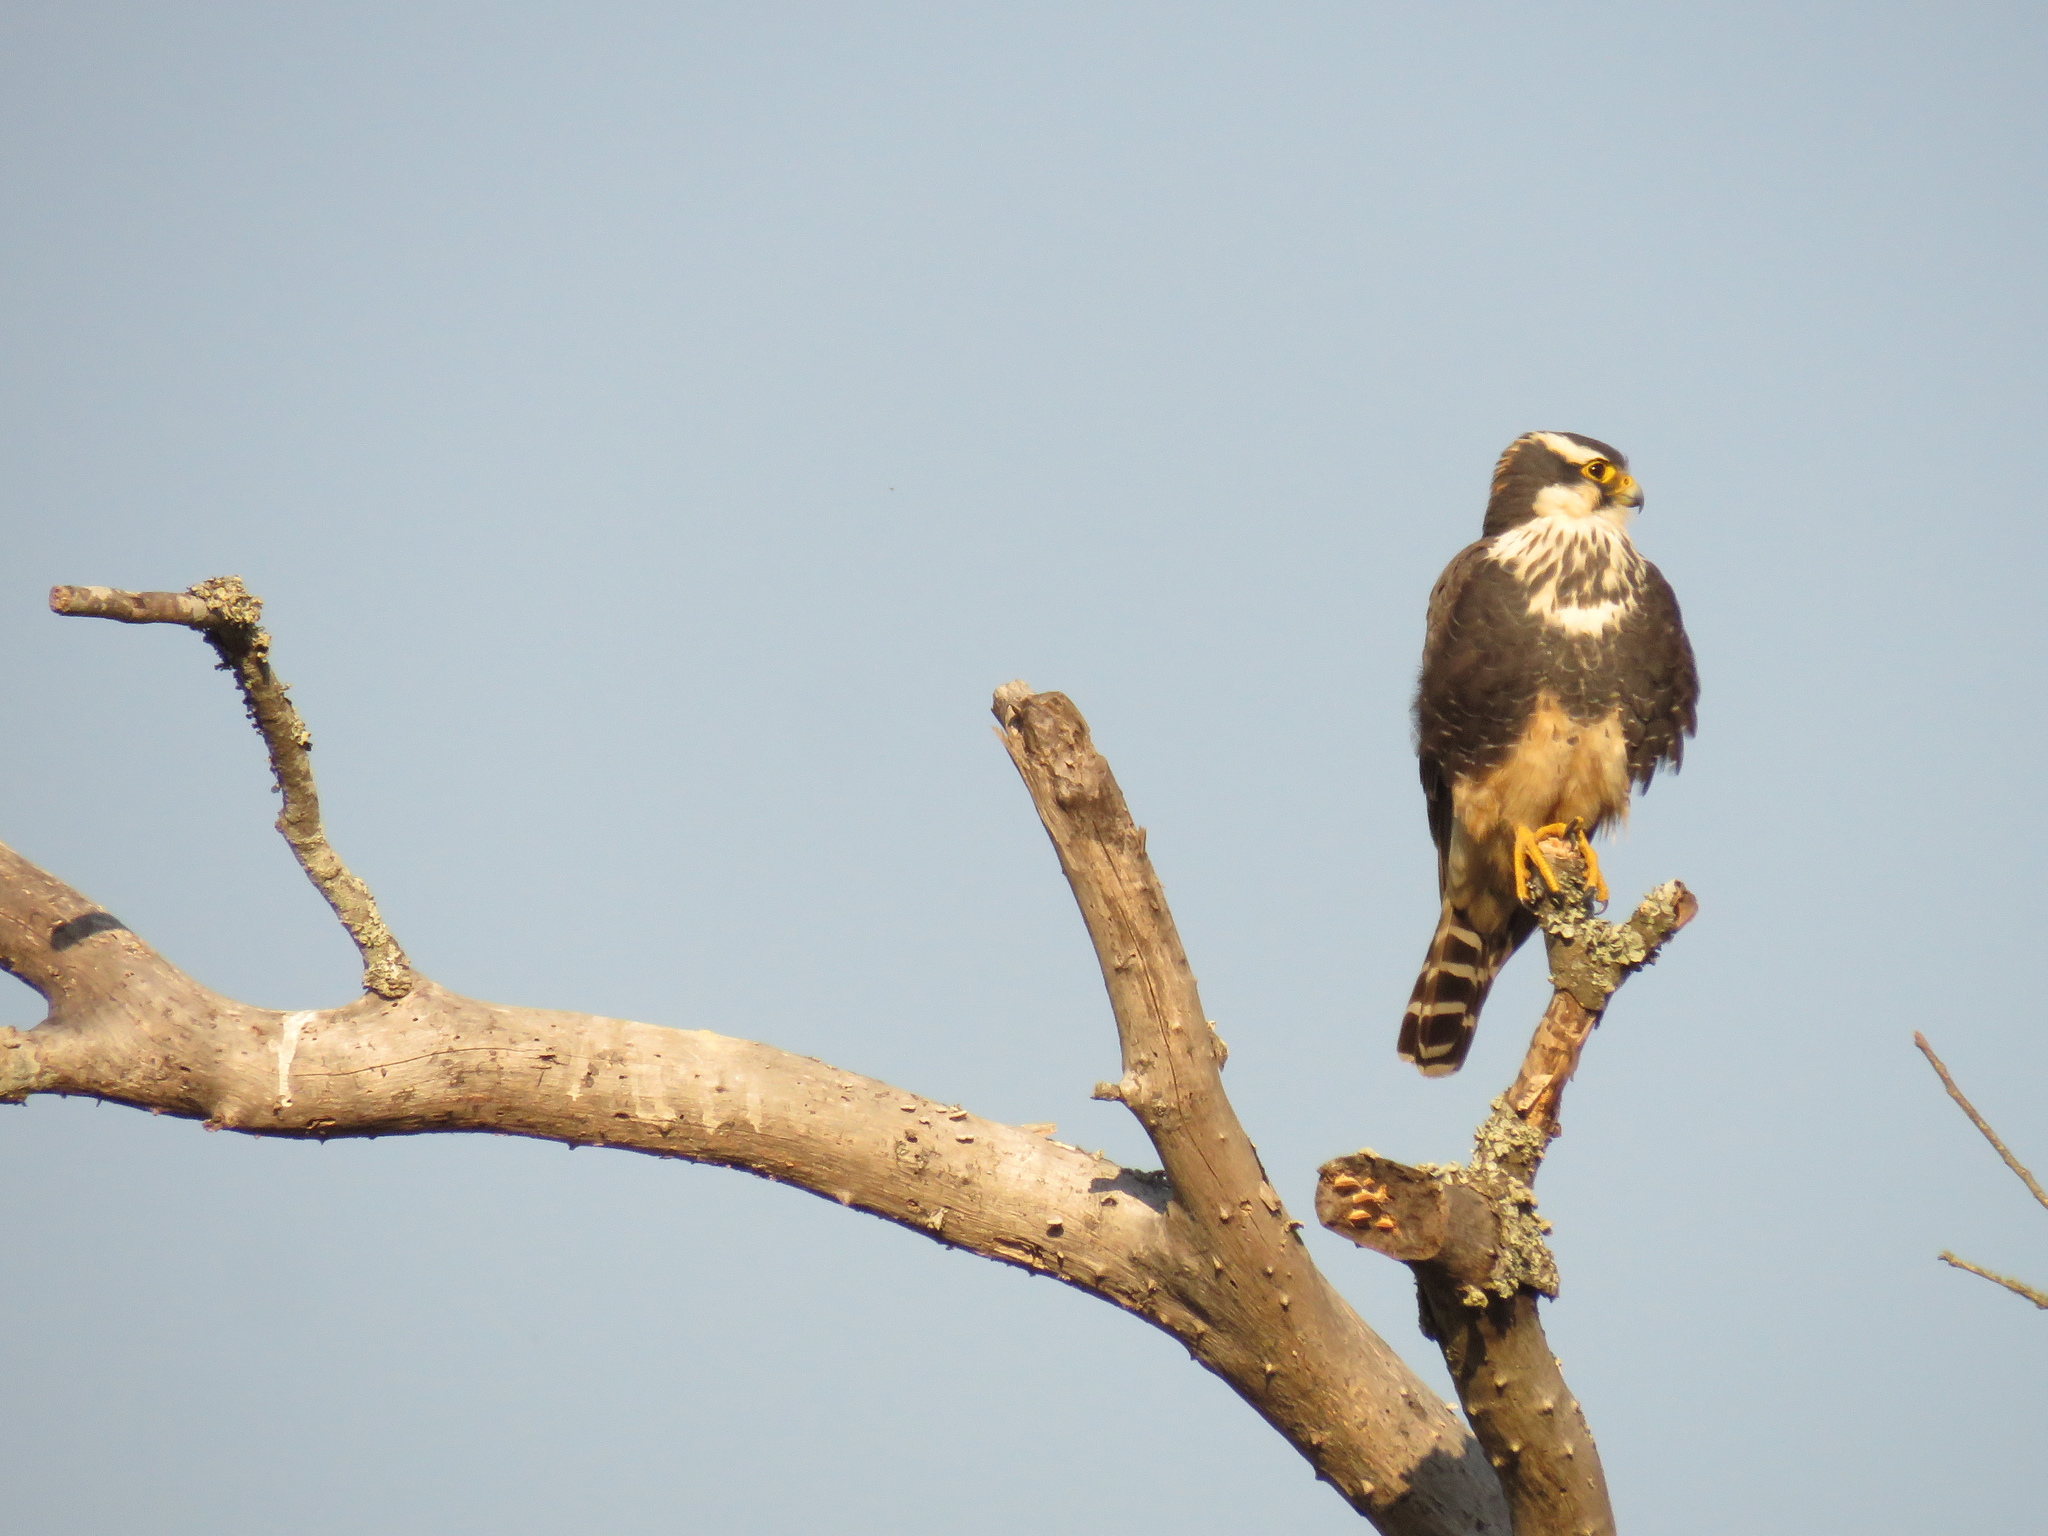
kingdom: Animalia
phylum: Chordata
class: Aves
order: Falconiformes
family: Falconidae
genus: Falco
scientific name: Falco femoralis
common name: Aplomado falcon
